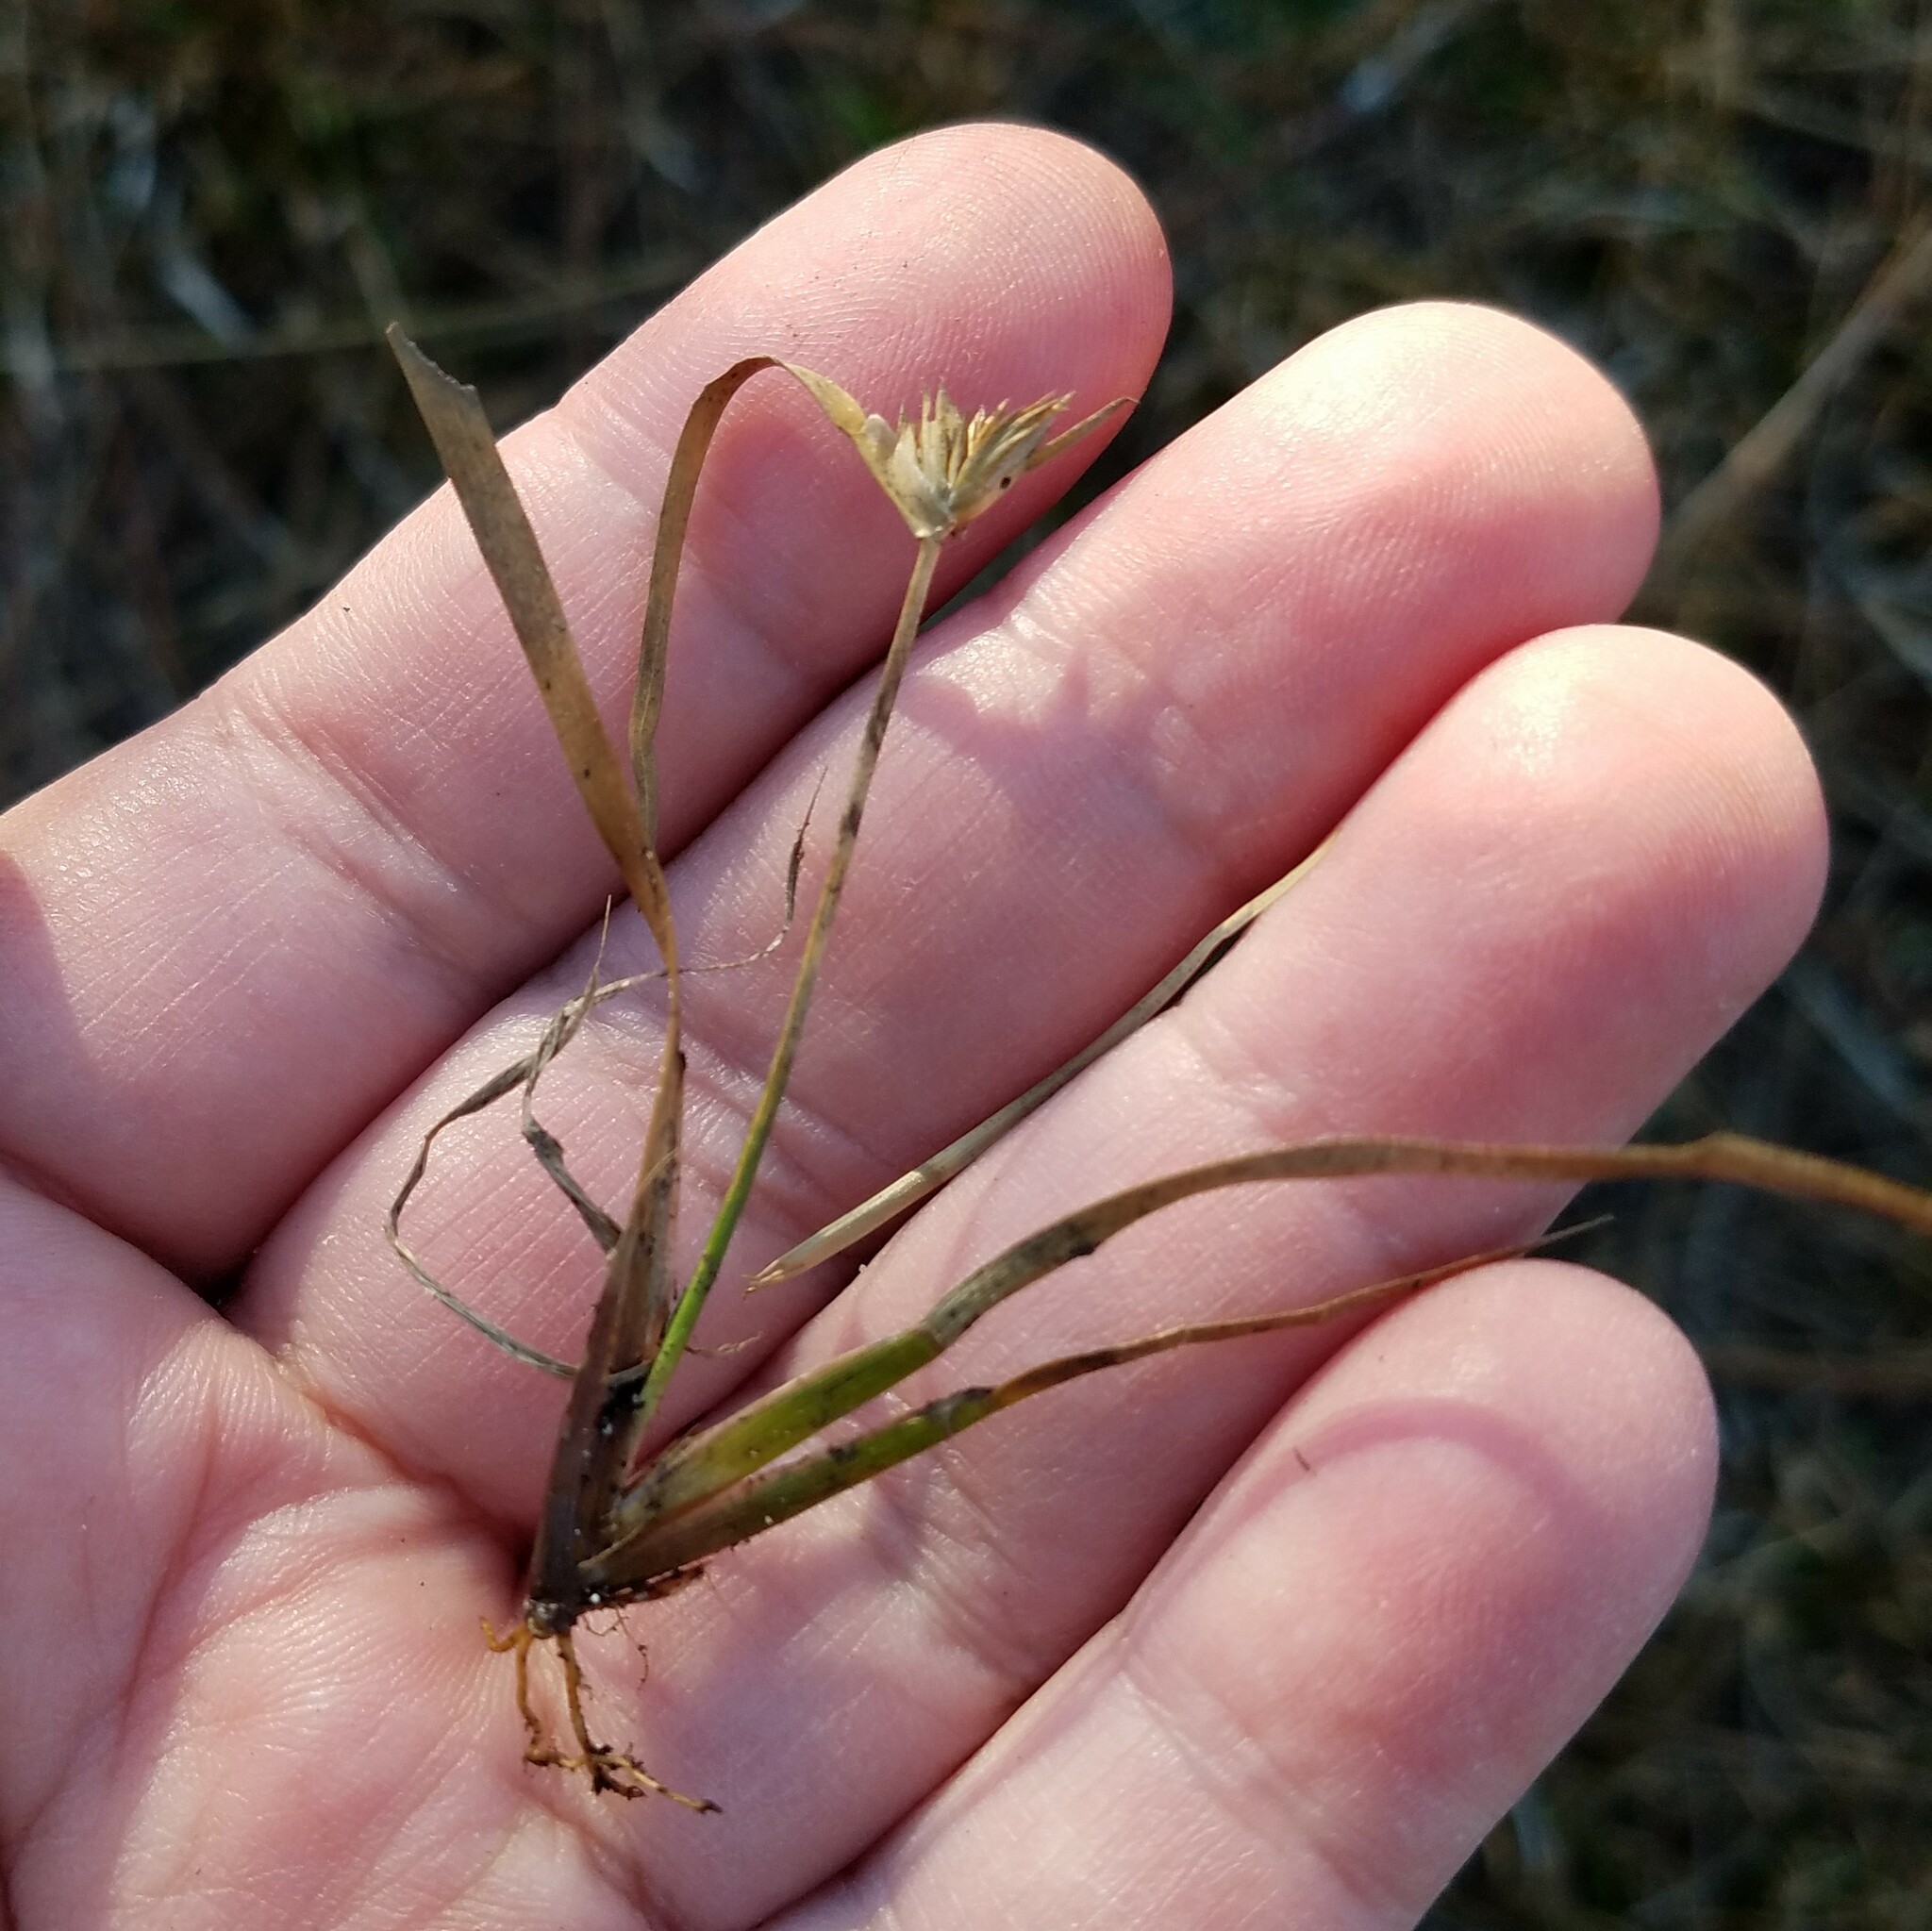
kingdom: Plantae
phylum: Tracheophyta
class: Liliopsida
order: Poales
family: Juncaceae
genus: Juncus
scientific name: Juncus repens
